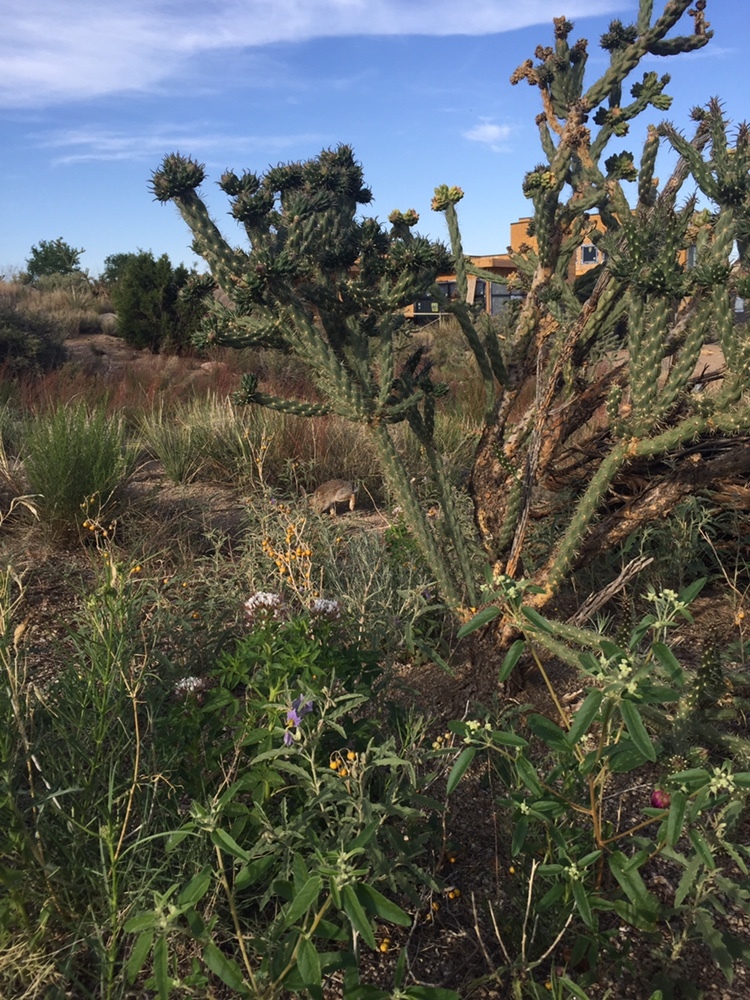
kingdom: Animalia
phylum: Chordata
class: Mammalia
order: Lagomorpha
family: Leporidae
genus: Sylvilagus
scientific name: Sylvilagus audubonii
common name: Desert cottontail
